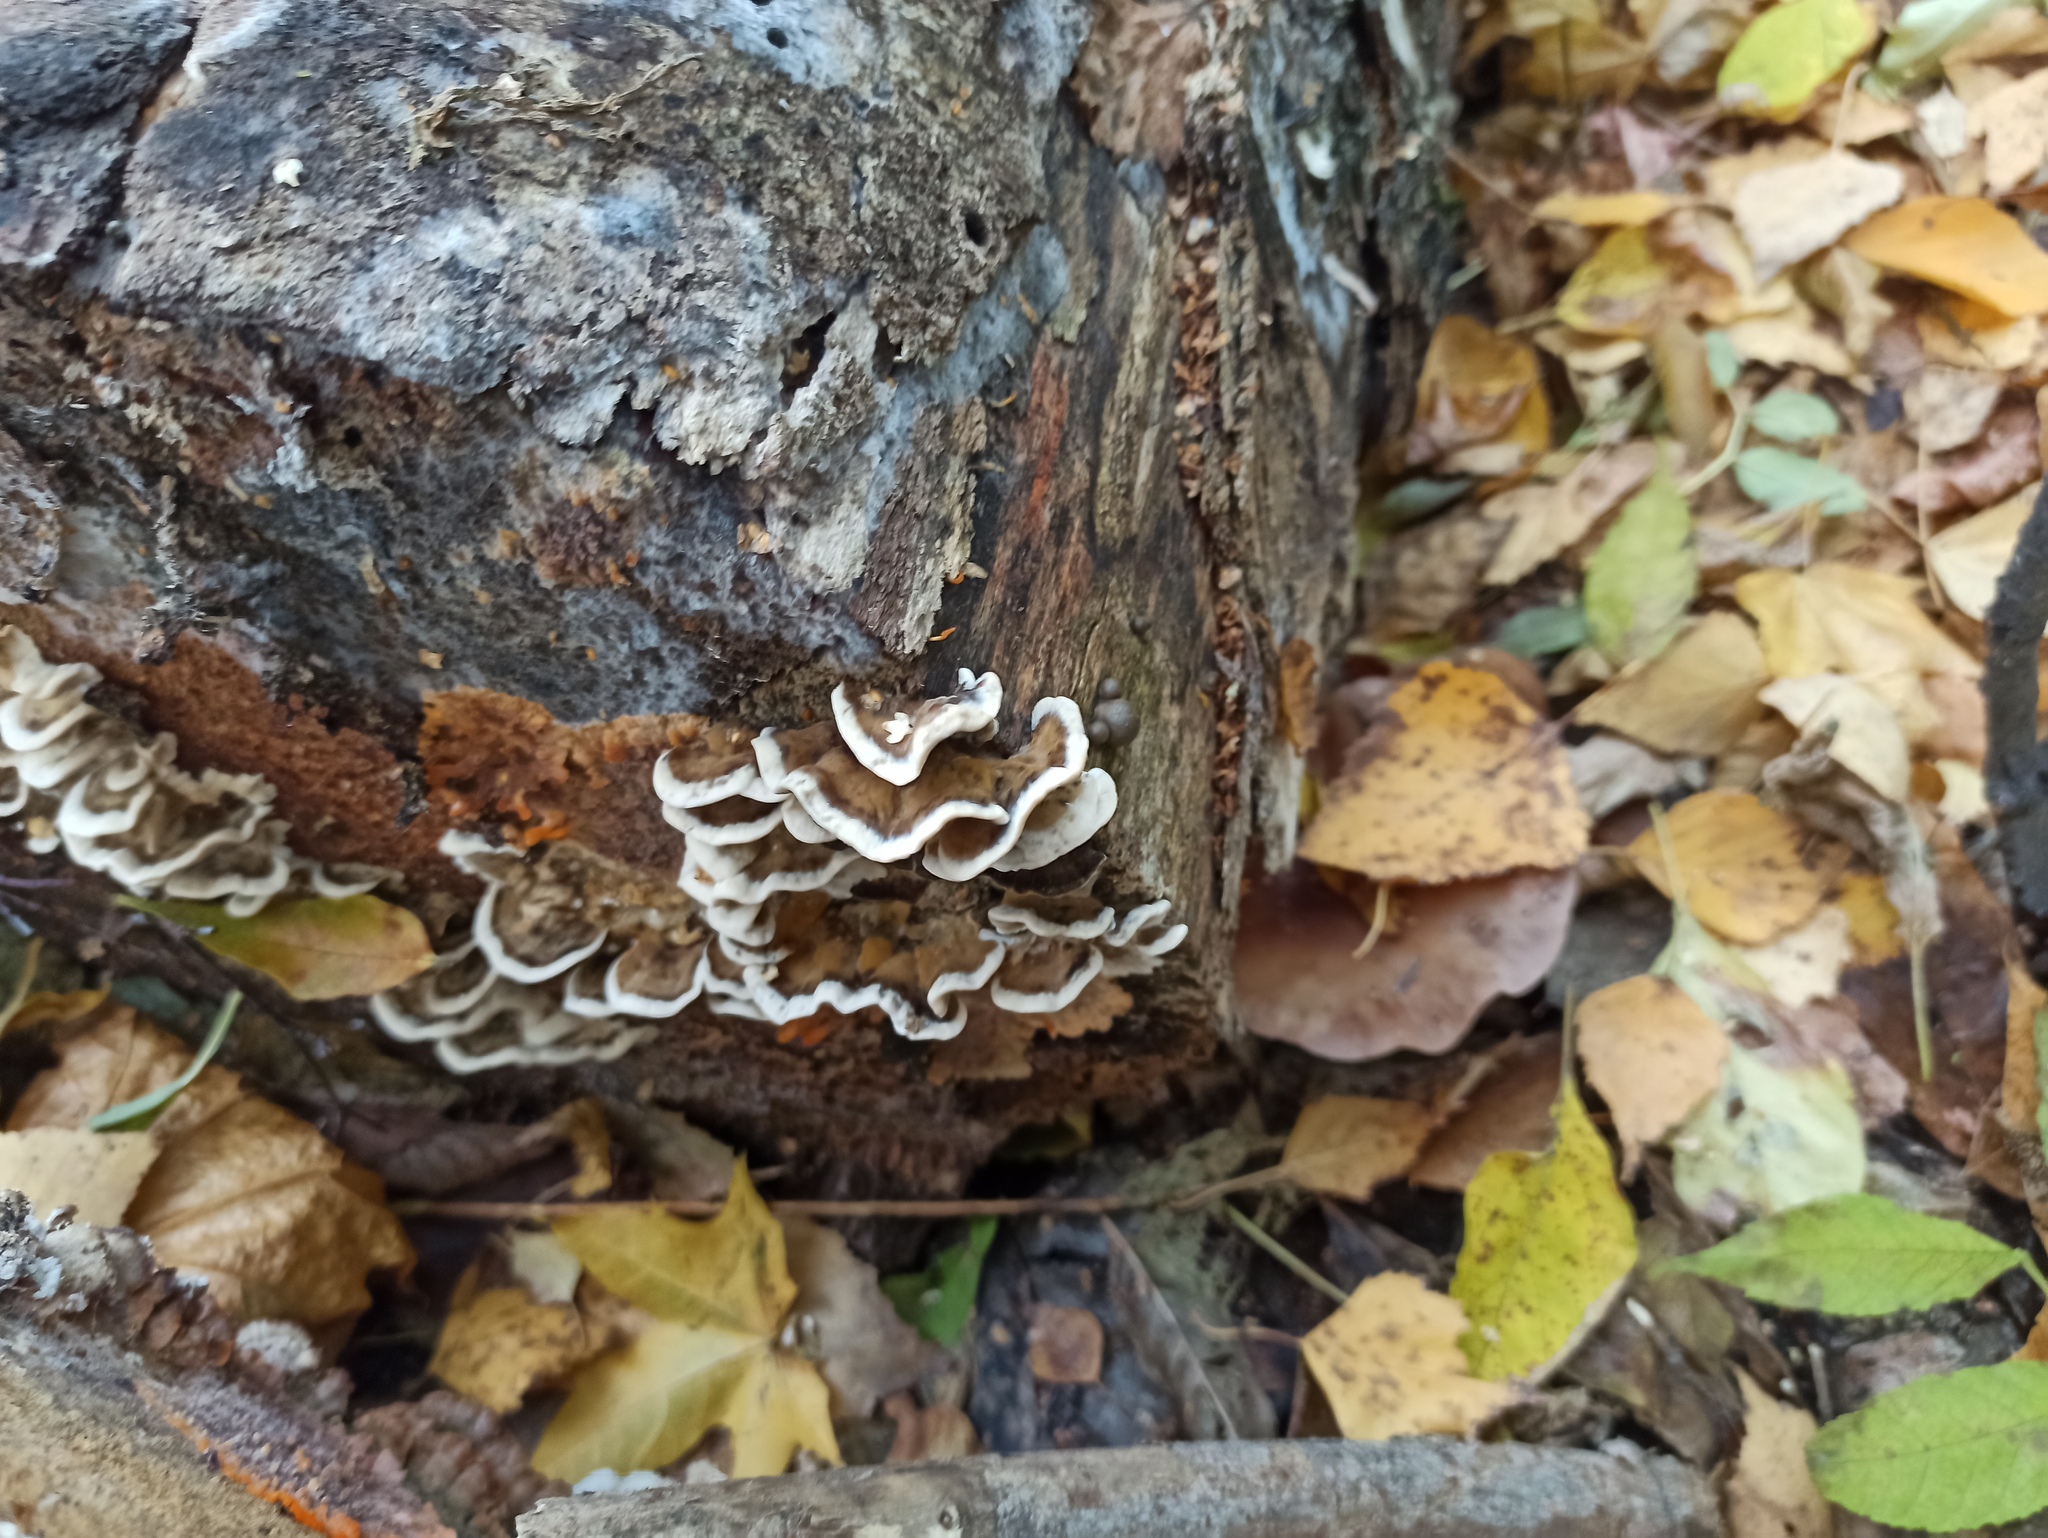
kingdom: Fungi
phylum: Basidiomycota
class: Agaricomycetes
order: Polyporales
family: Phanerochaetaceae
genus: Bjerkandera
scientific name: Bjerkandera adusta
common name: Smoky bracket
